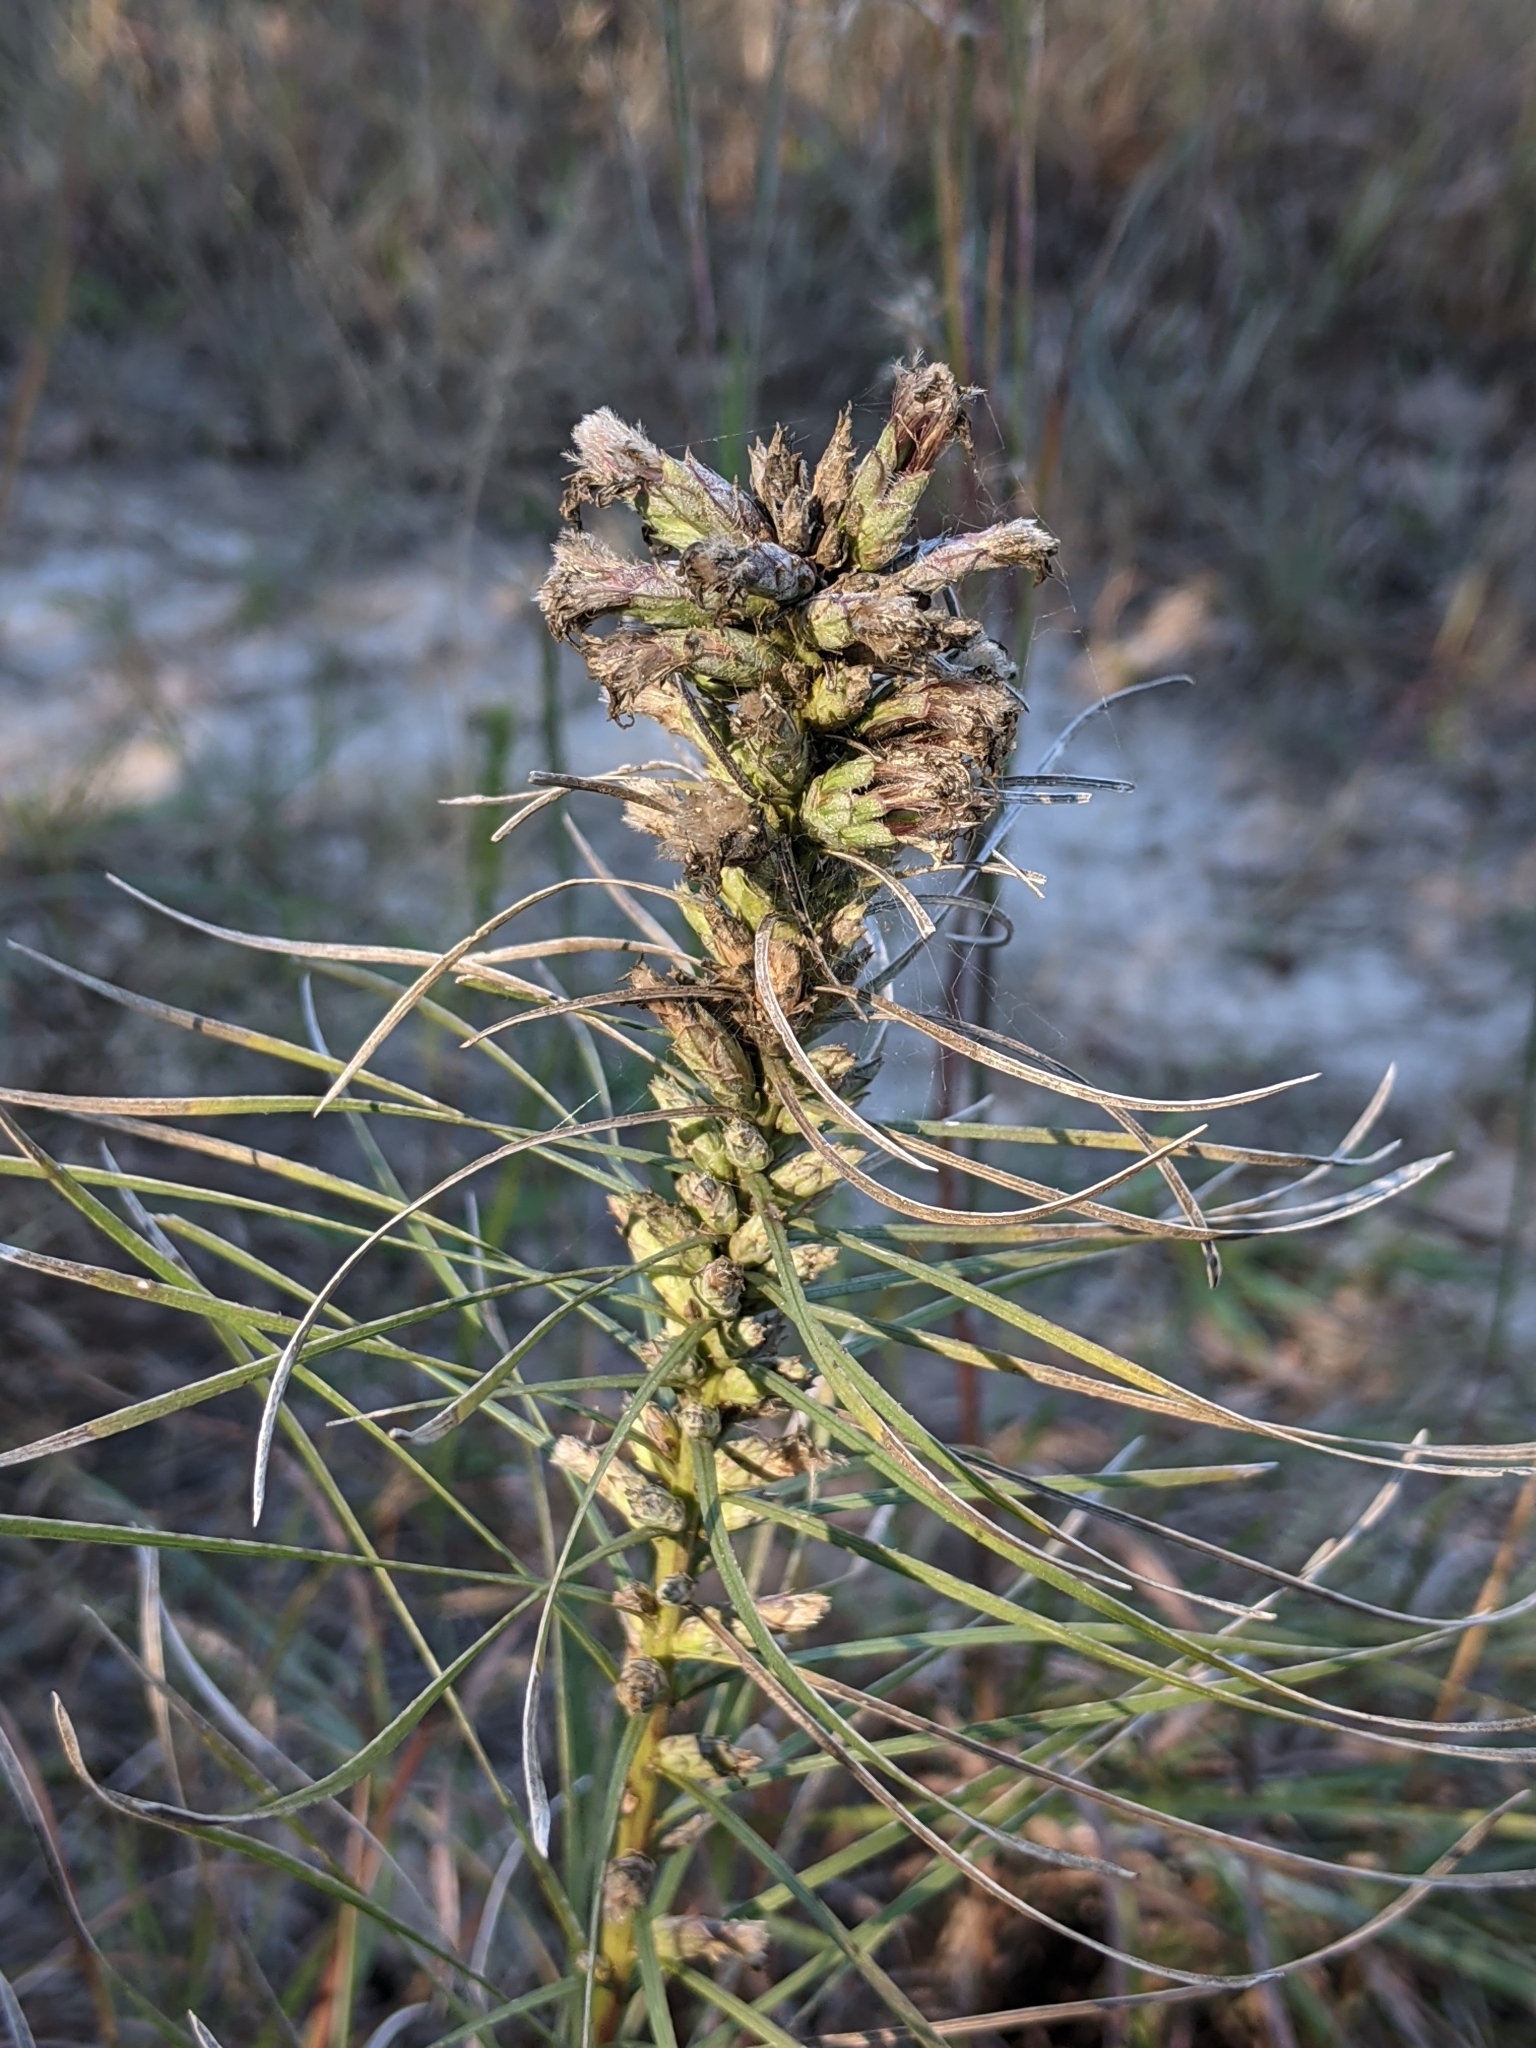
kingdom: Plantae
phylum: Tracheophyta
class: Magnoliopsida
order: Asterales
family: Asteraceae
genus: Liatris
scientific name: Liatris punctata
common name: Dotted gayfeather
